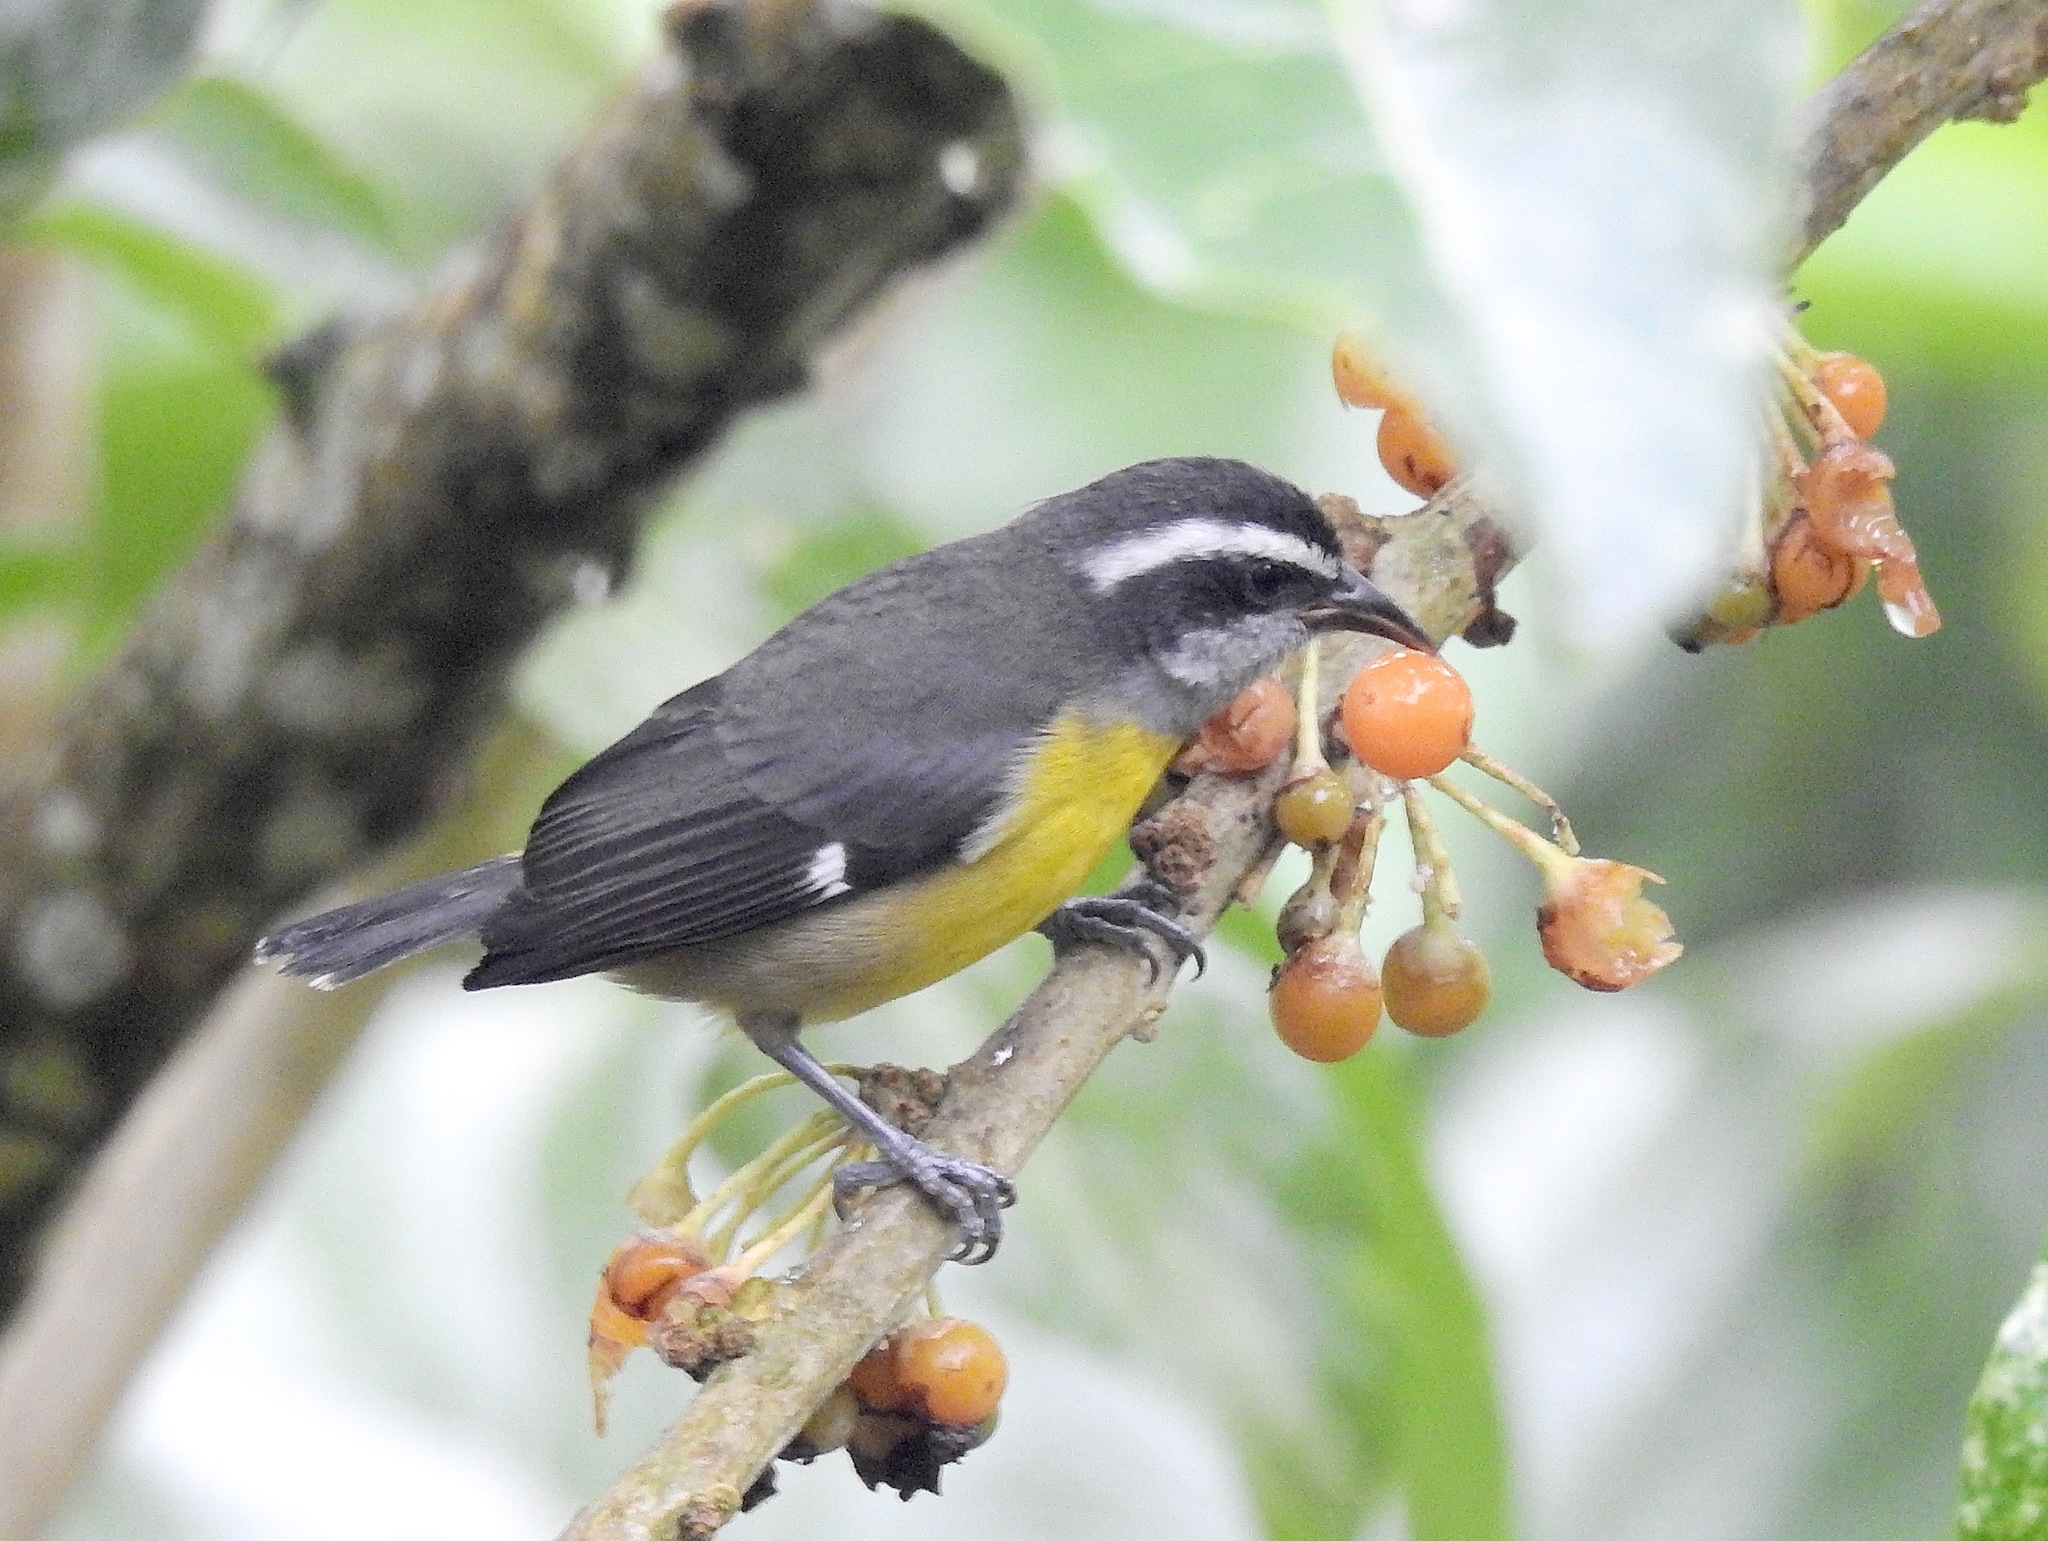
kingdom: Animalia
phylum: Chordata
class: Aves
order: Passeriformes
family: Thraupidae
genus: Coereba
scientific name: Coereba flaveola
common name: Bananaquit
